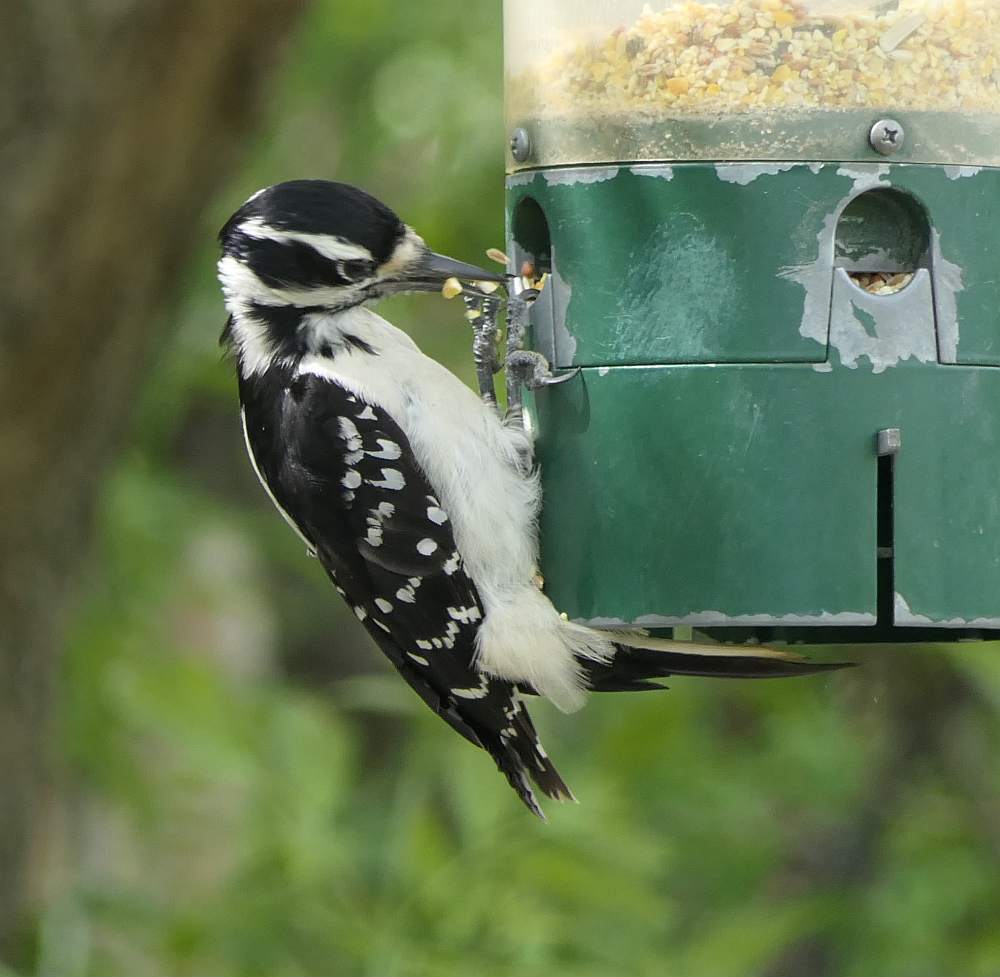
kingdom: Animalia
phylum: Chordata
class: Aves
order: Piciformes
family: Picidae
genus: Leuconotopicus
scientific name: Leuconotopicus villosus
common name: Hairy woodpecker
